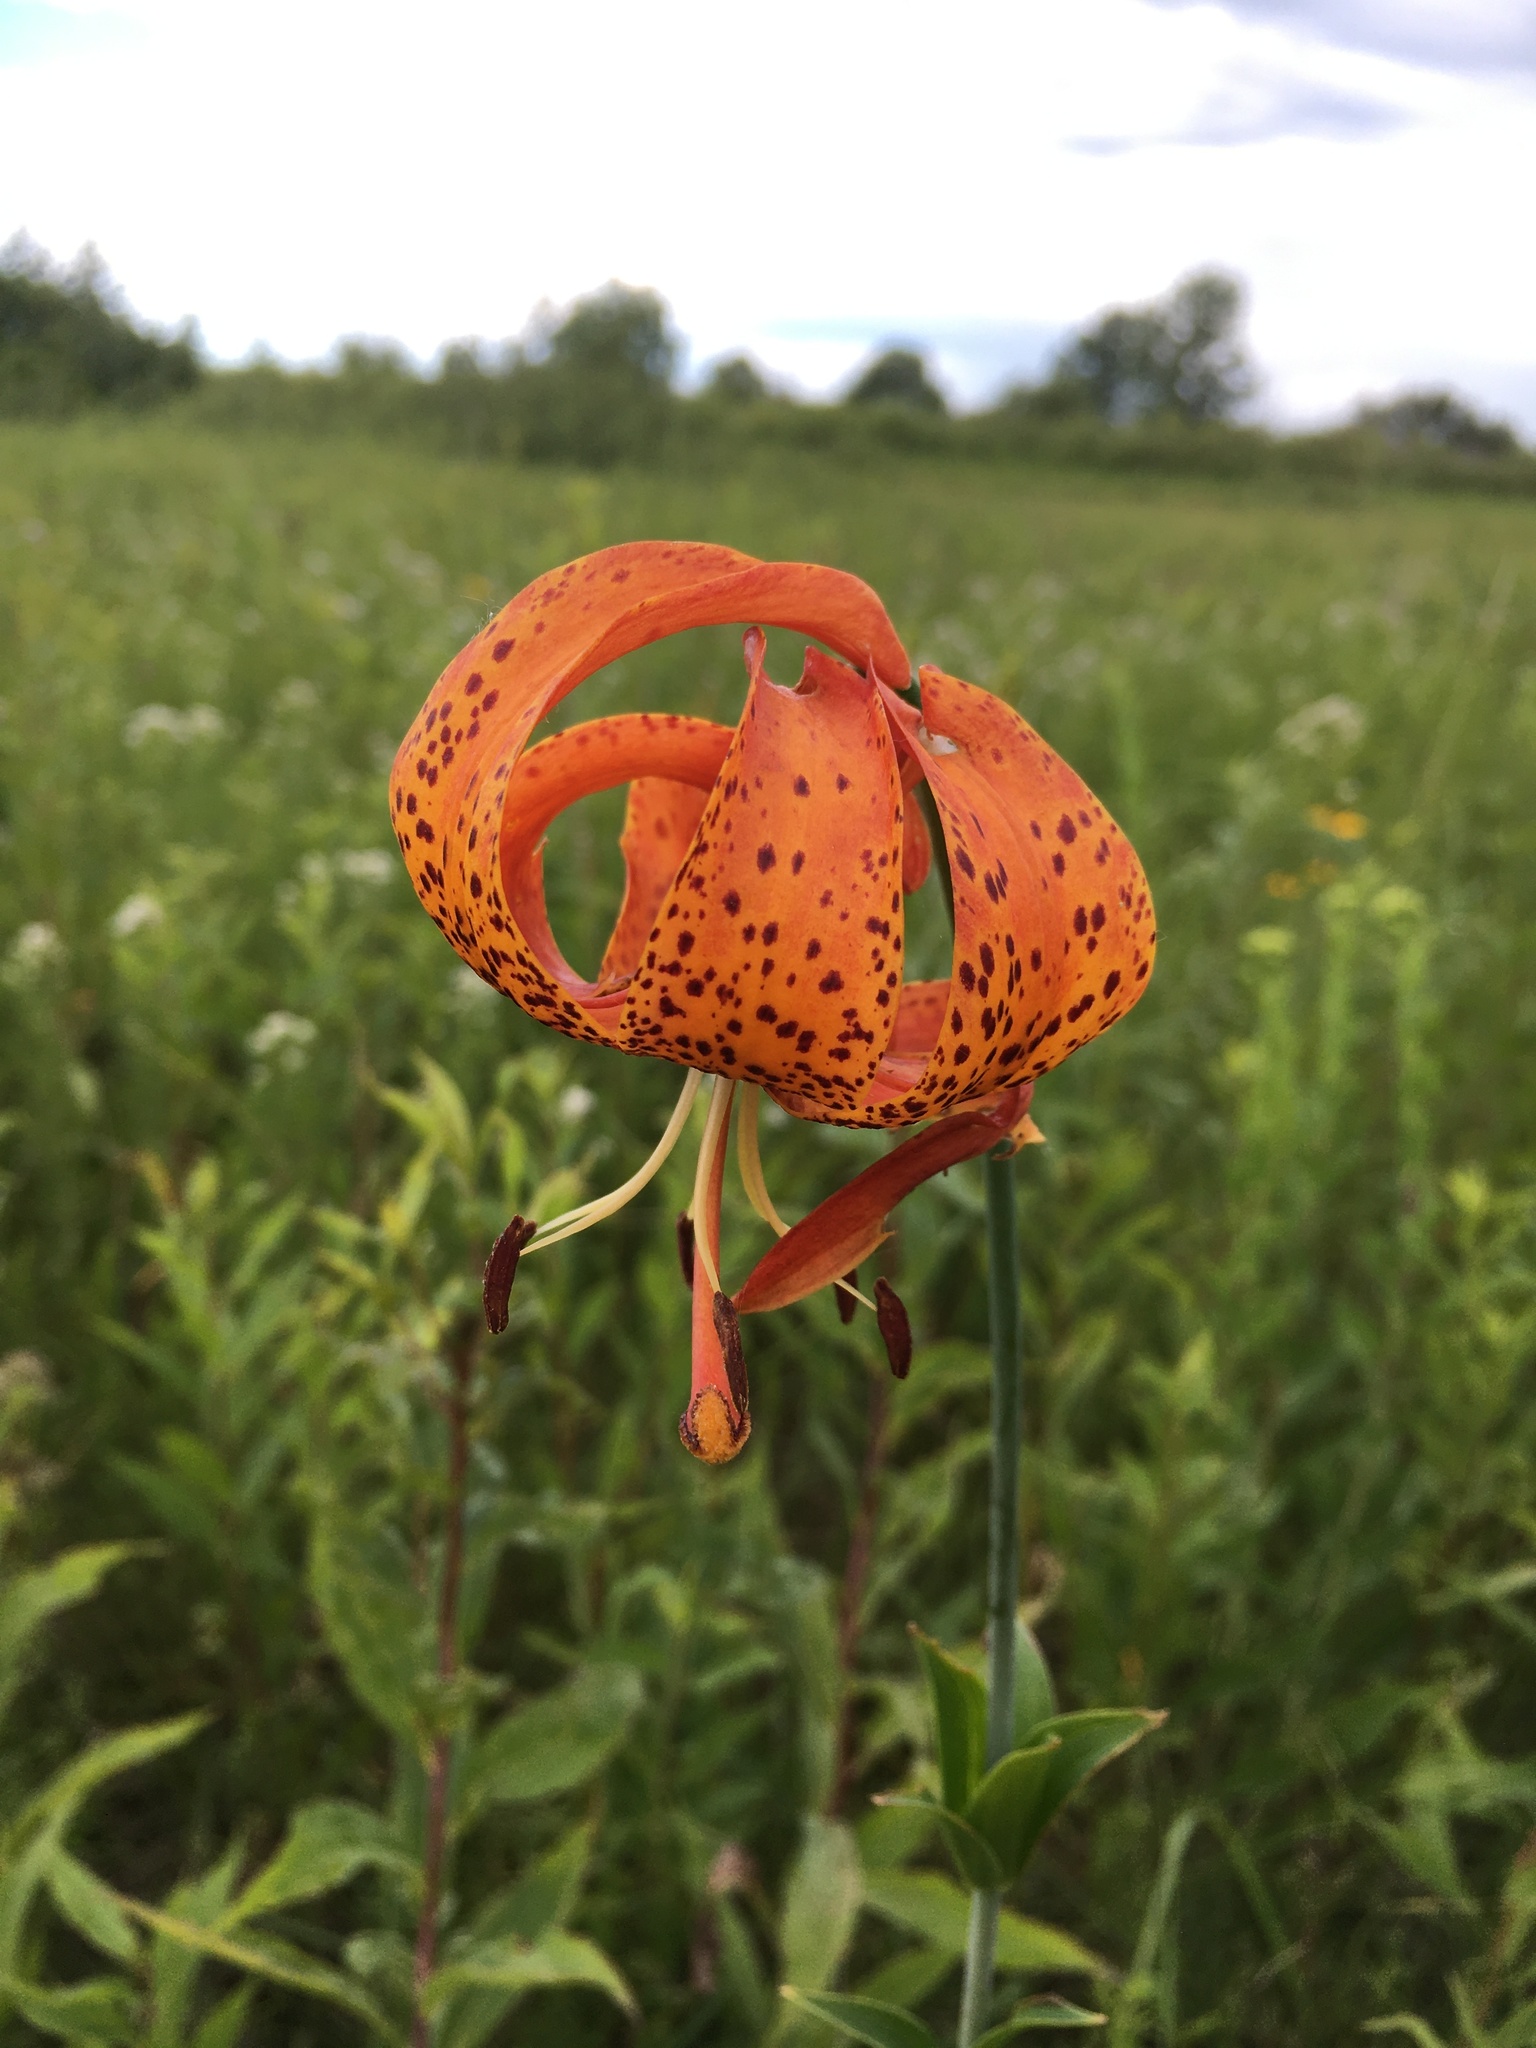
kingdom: Plantae
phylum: Tracheophyta
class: Liliopsida
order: Liliales
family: Liliaceae
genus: Lilium
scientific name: Lilium michiganense
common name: Michigan lily
